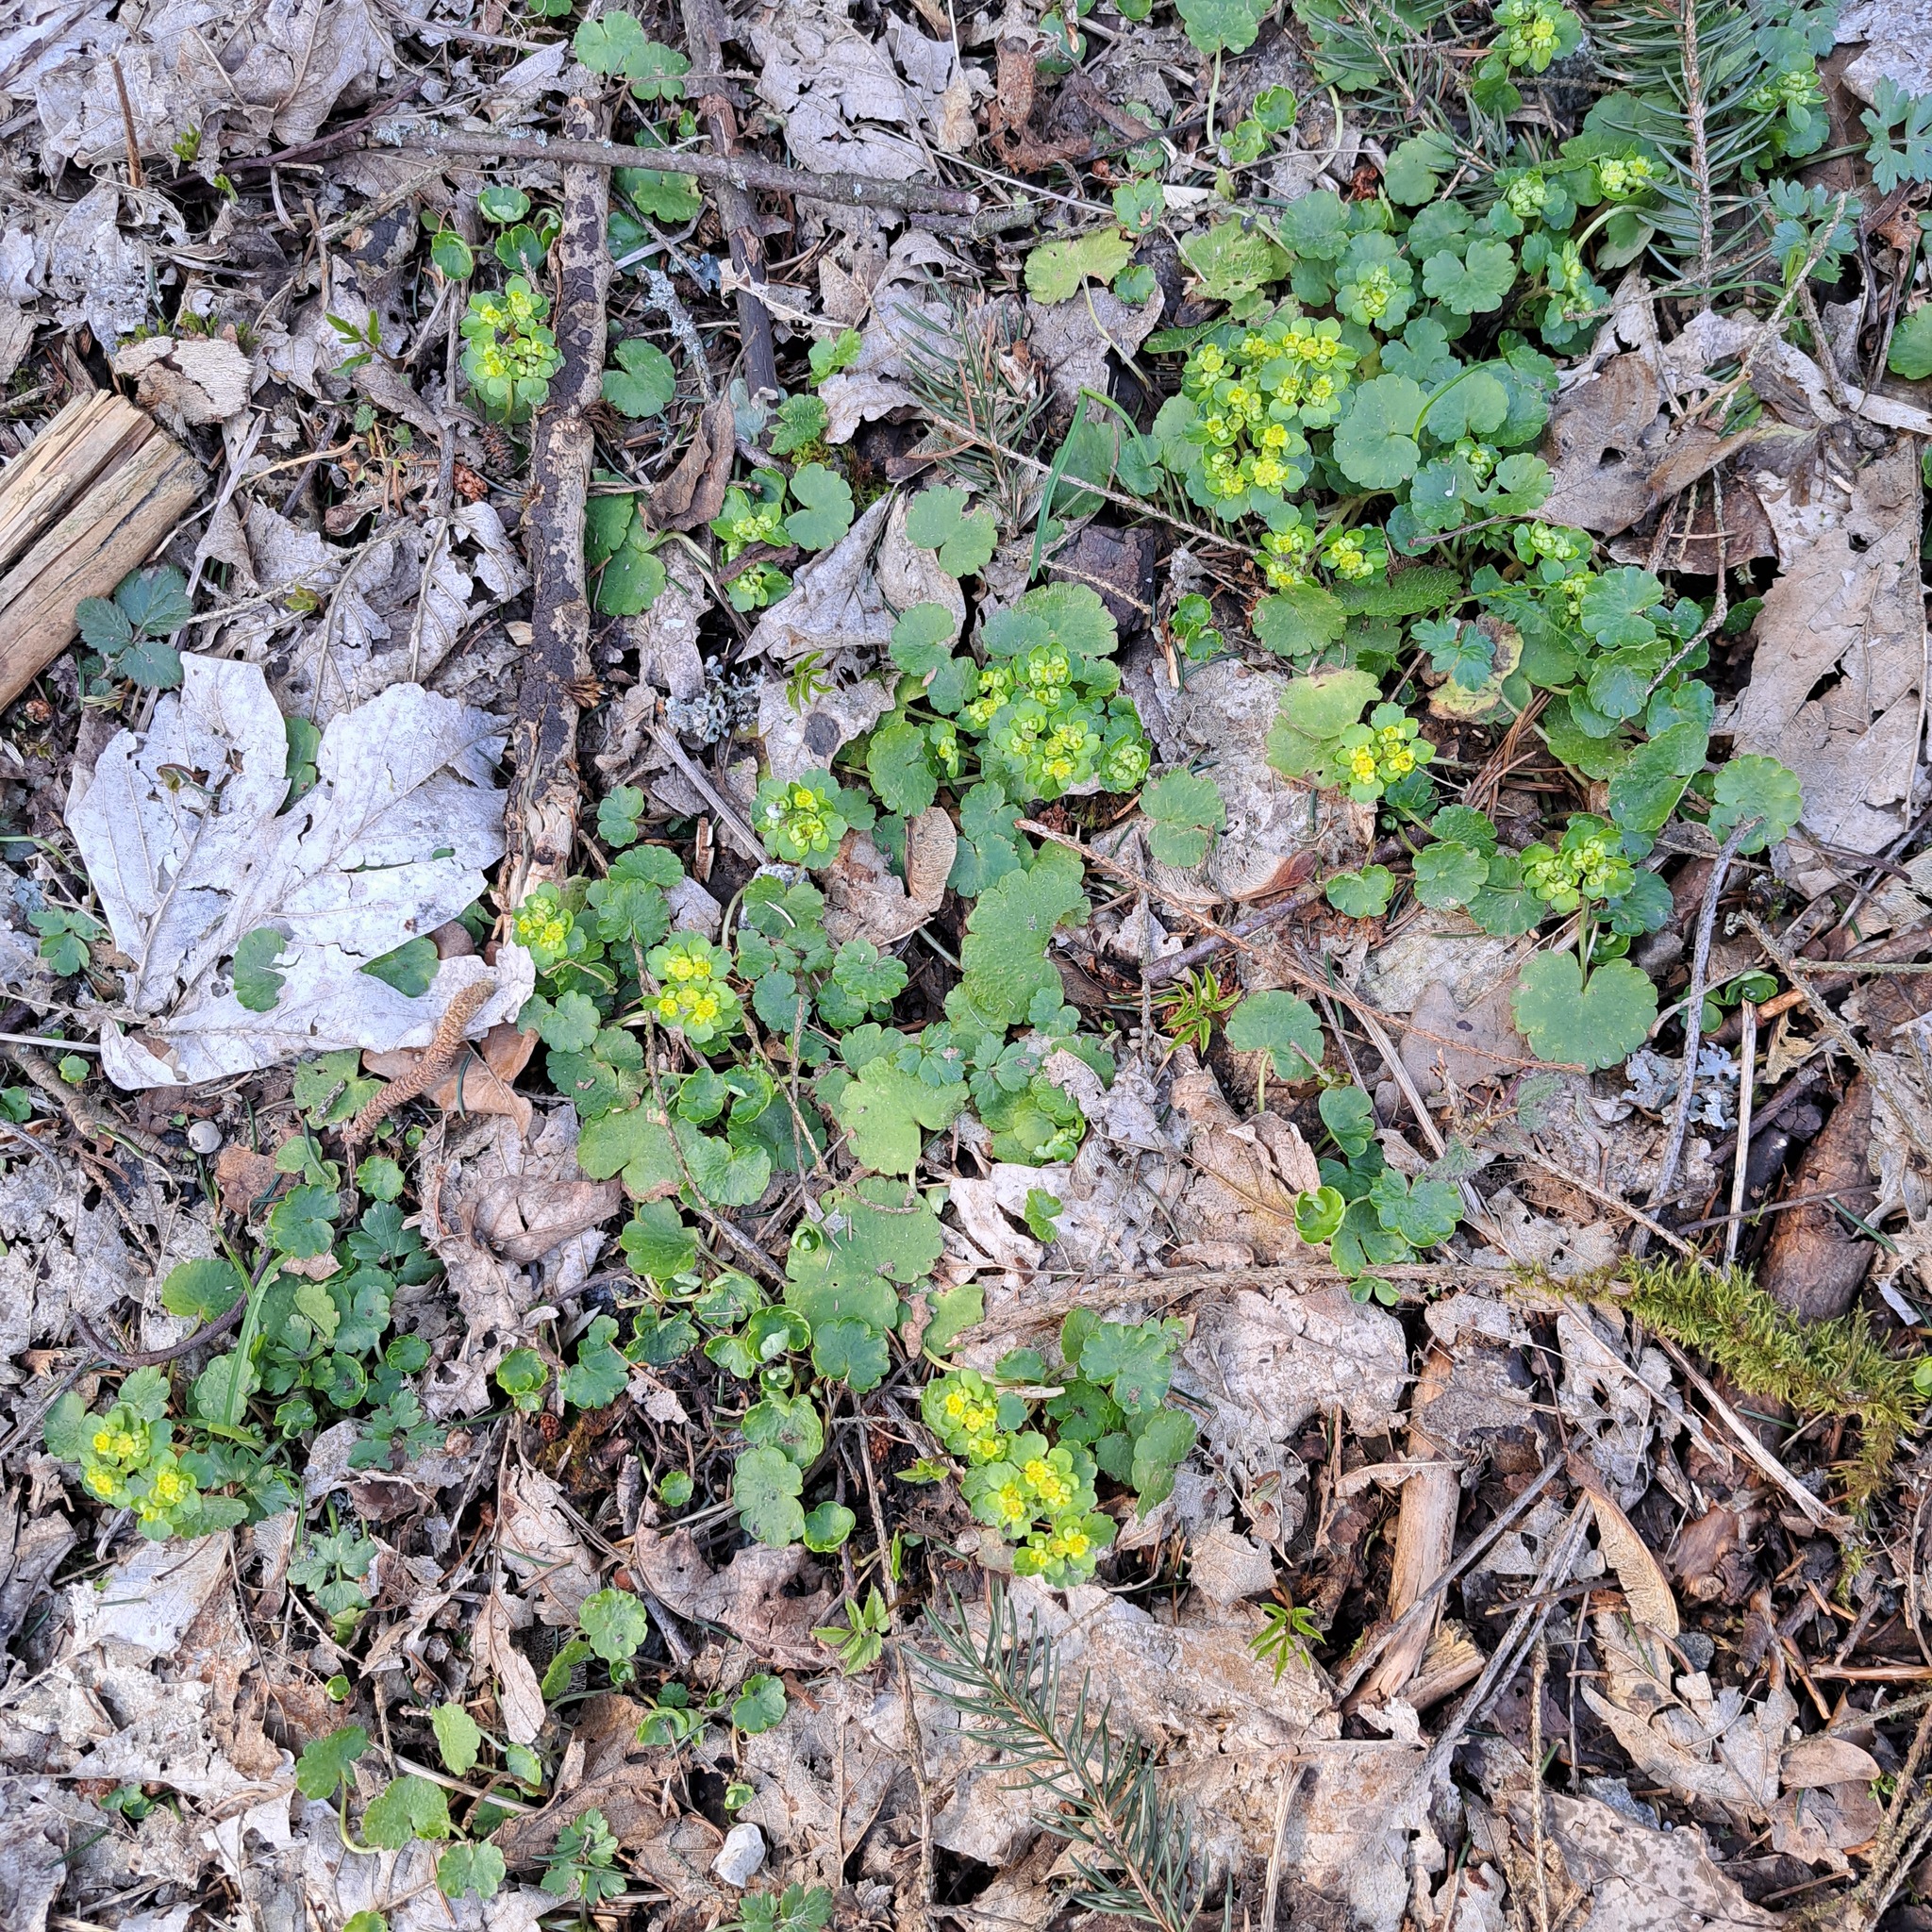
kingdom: Plantae
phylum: Tracheophyta
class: Magnoliopsida
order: Saxifragales
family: Saxifragaceae
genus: Chrysosplenium
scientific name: Chrysosplenium alternifolium
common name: Alternate-leaved golden-saxifrage
